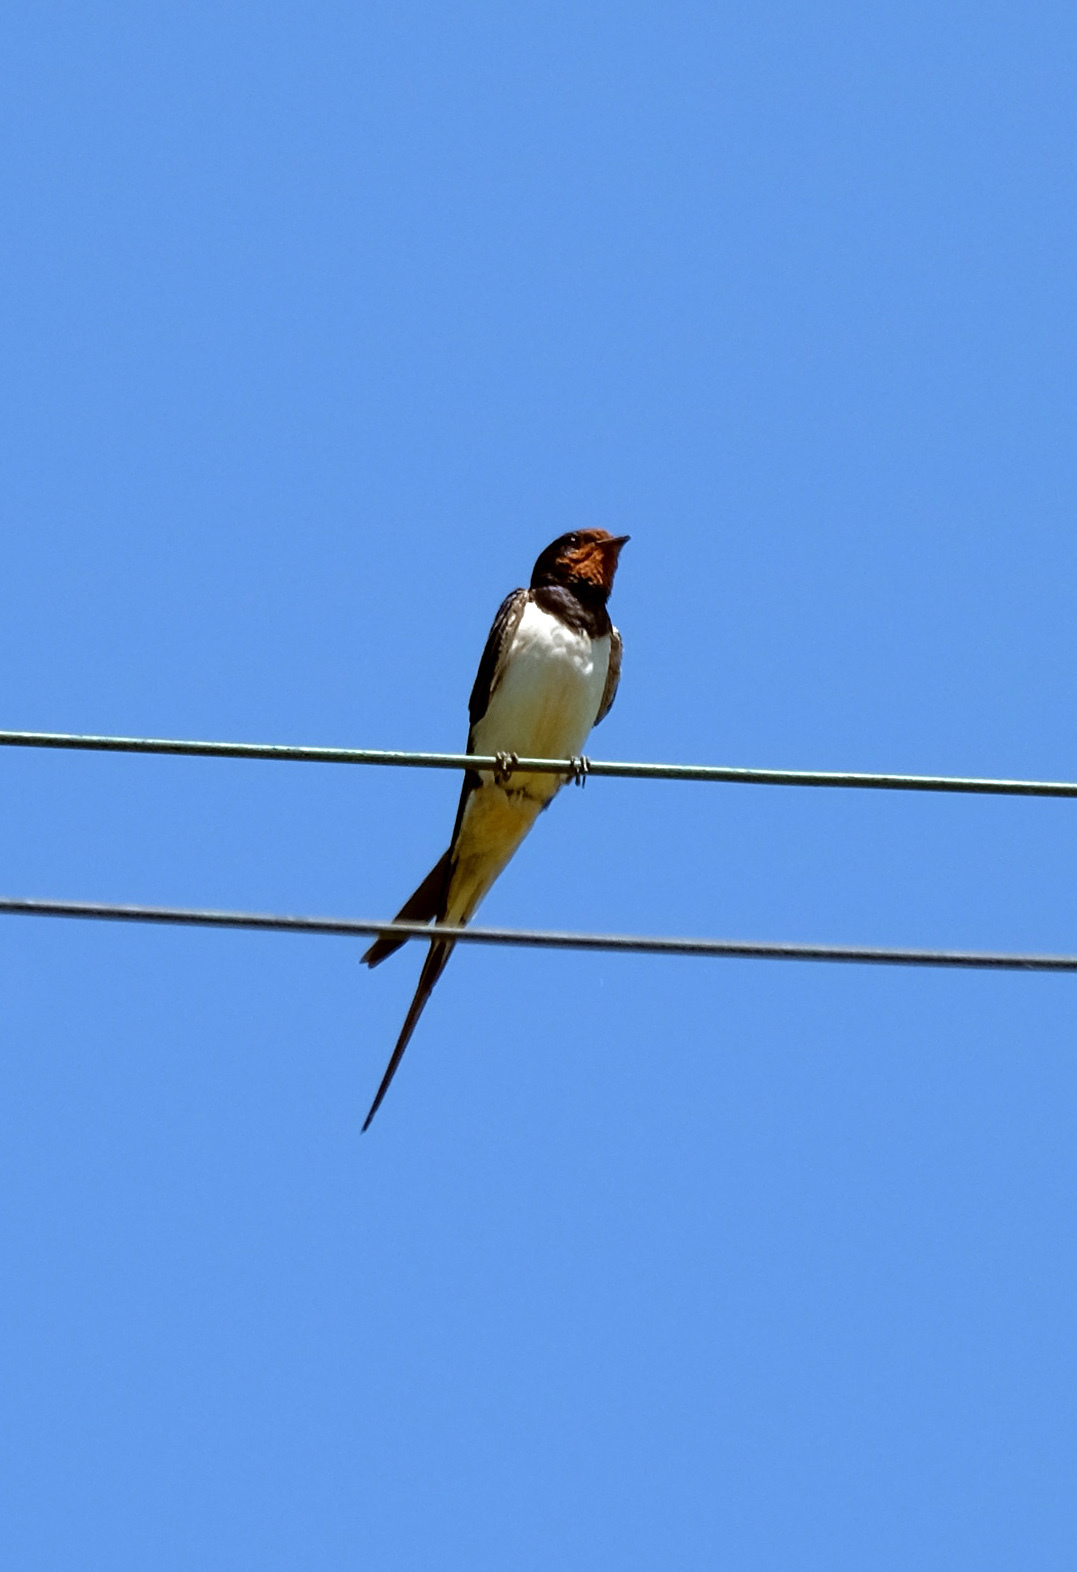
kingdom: Animalia
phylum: Chordata
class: Aves
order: Passeriformes
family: Hirundinidae
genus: Delichon
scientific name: Delichon urbicum
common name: Common house martin
